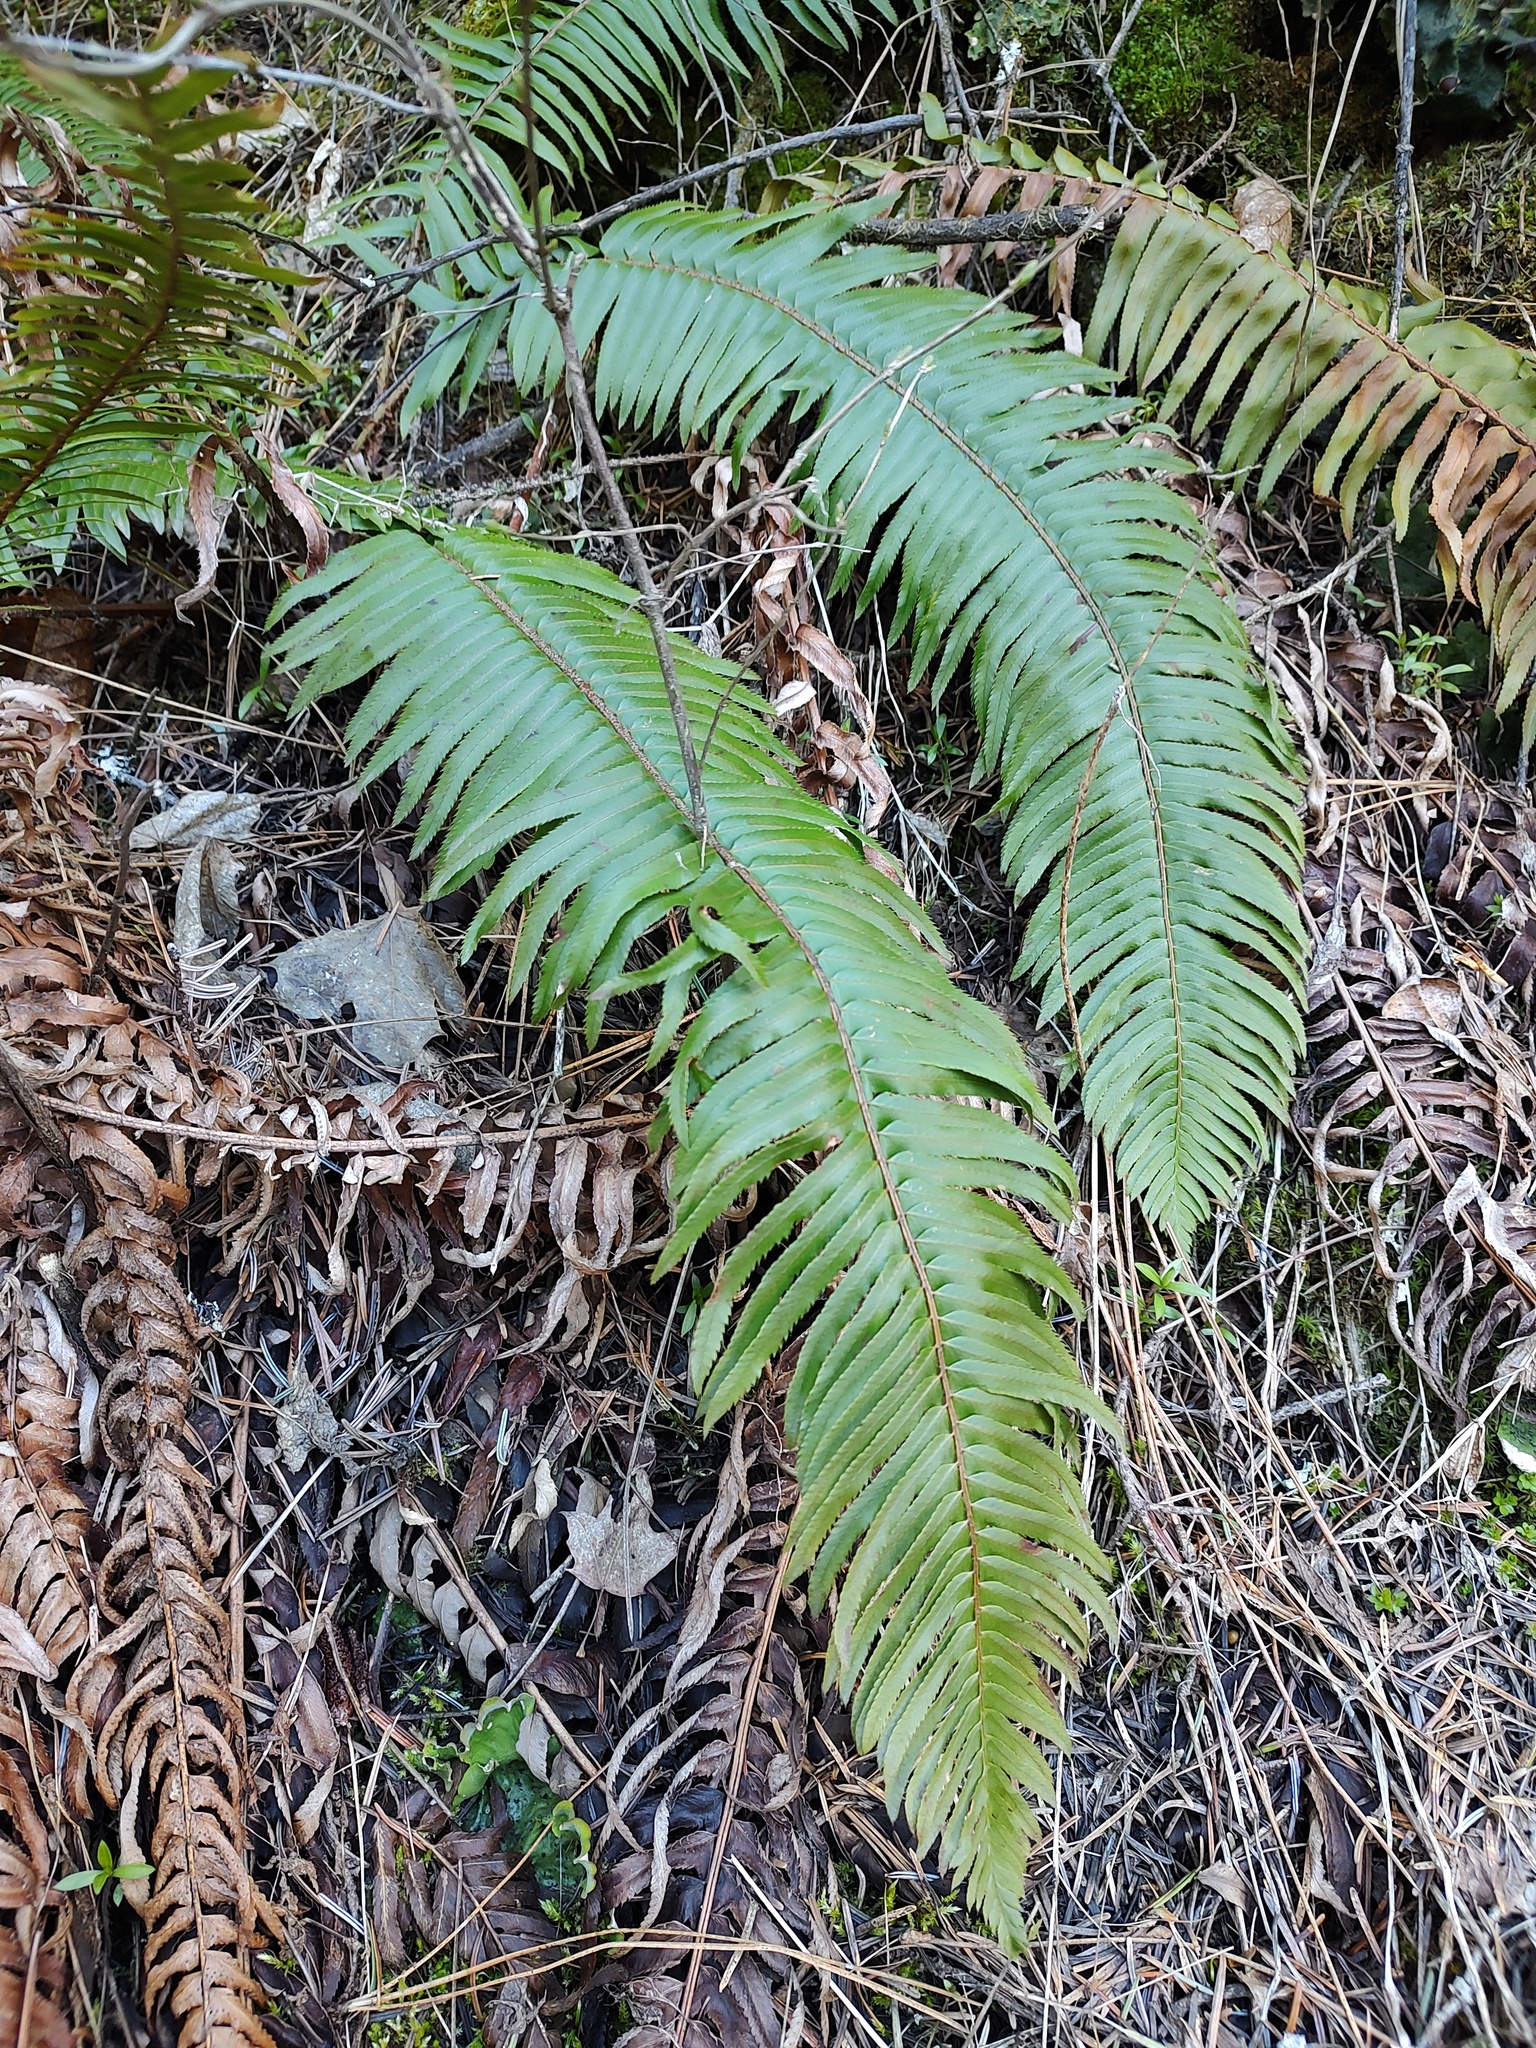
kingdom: Plantae
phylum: Tracheophyta
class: Polypodiopsida
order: Polypodiales
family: Dryopteridaceae
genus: Polystichum
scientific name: Polystichum munitum
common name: Western sword-fern
